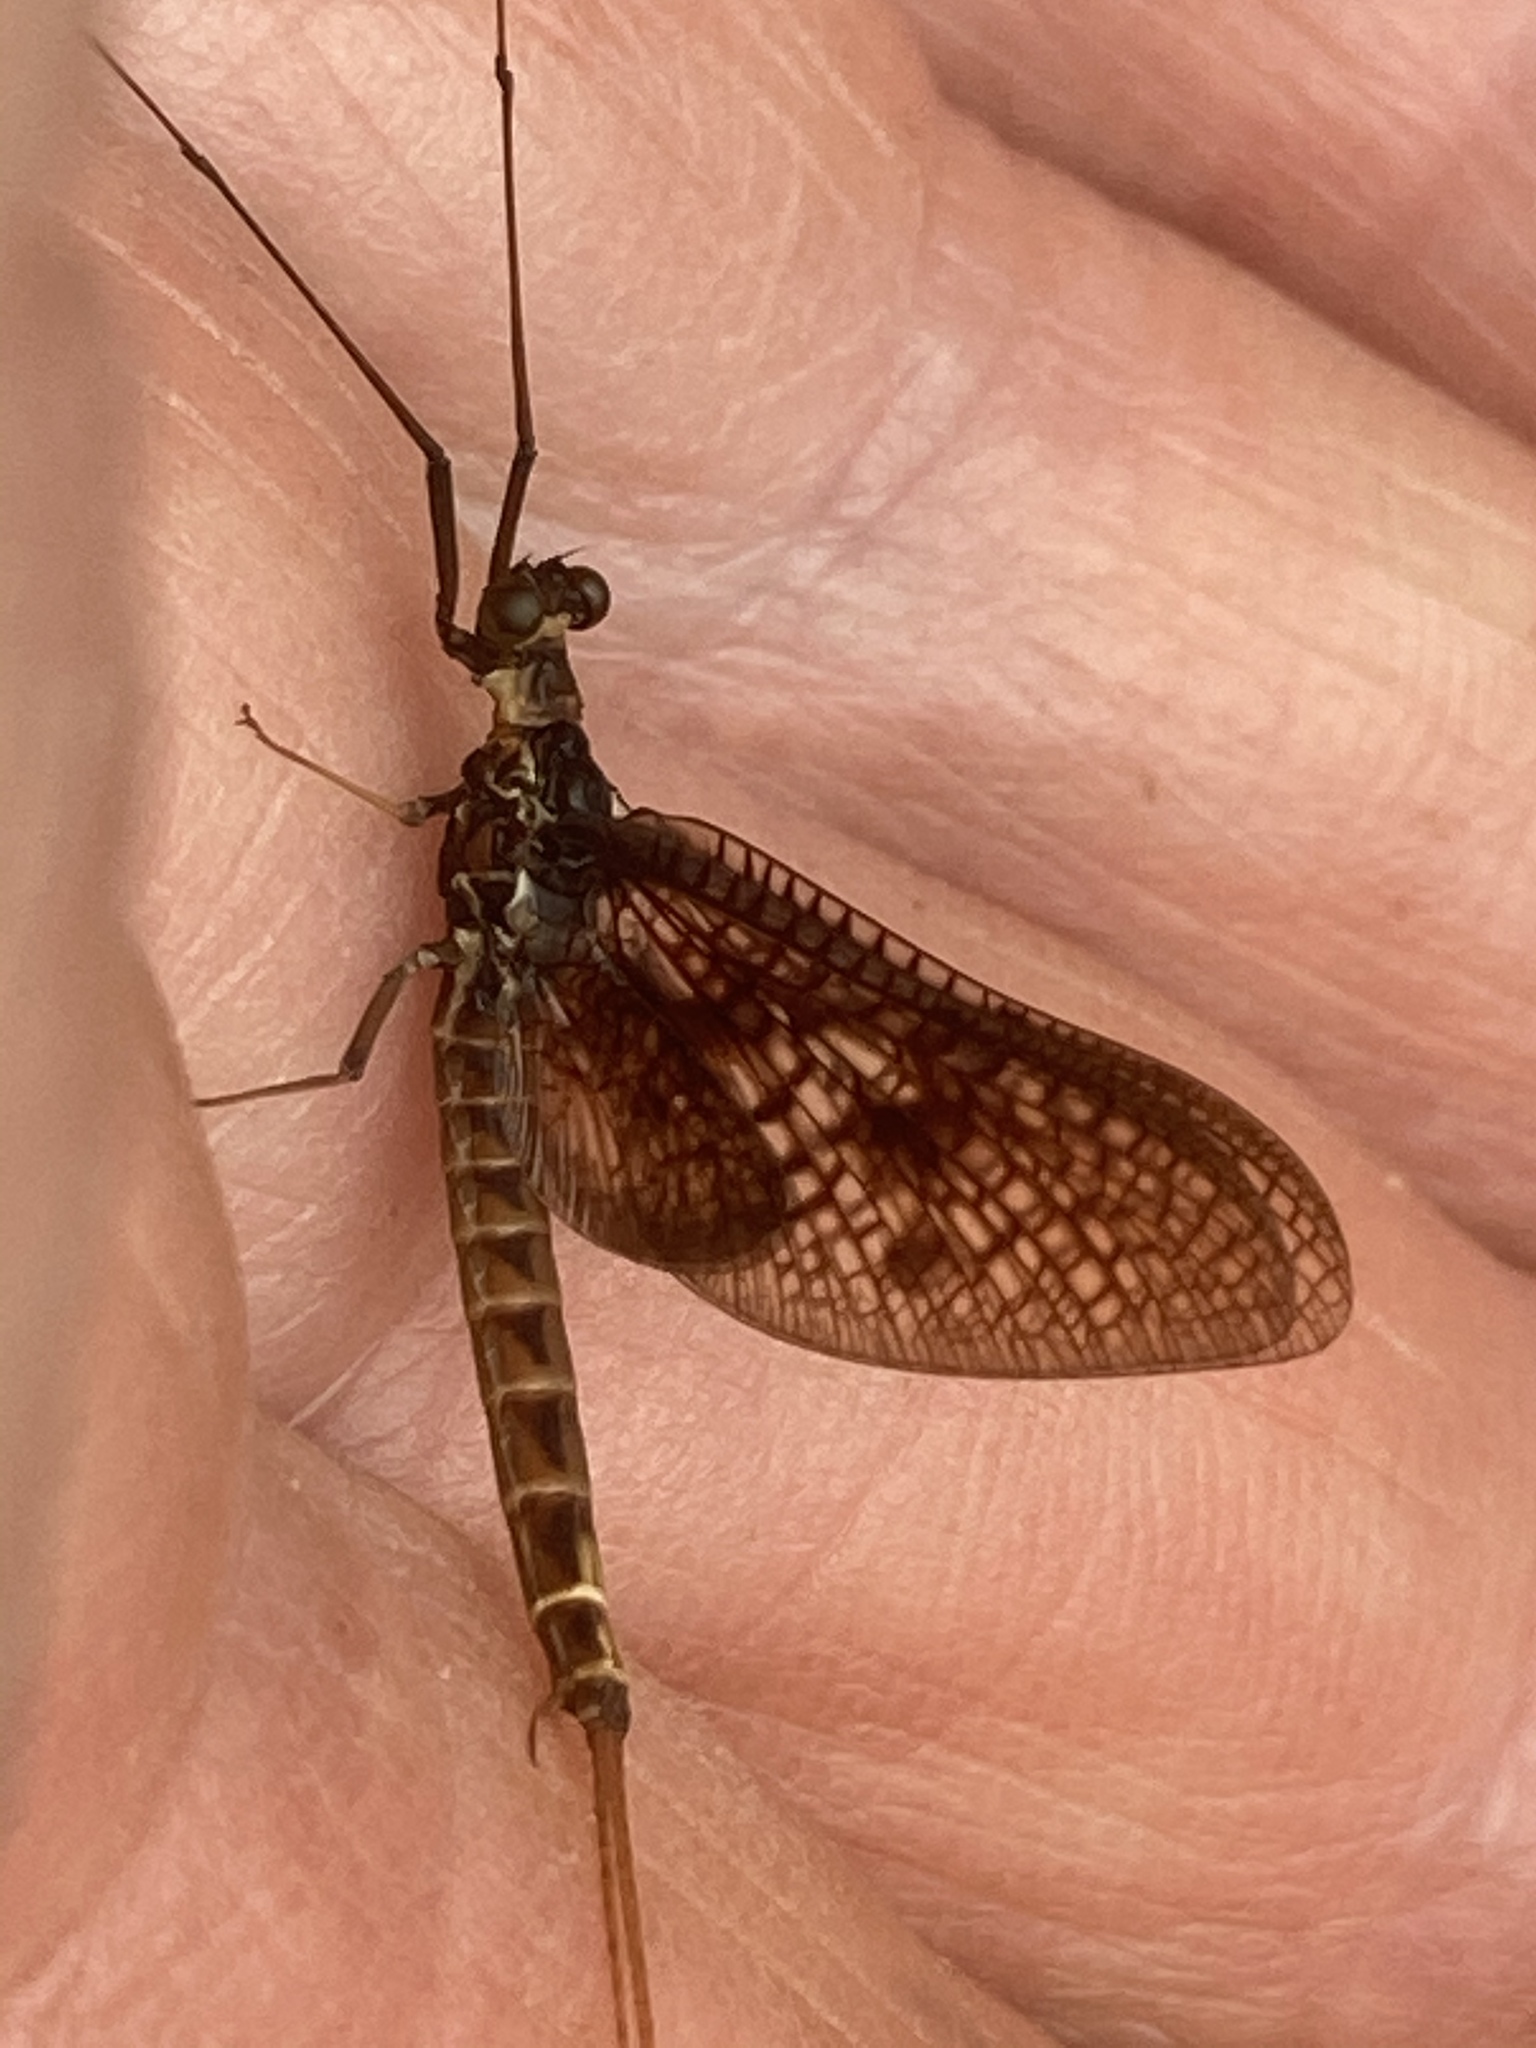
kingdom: Animalia
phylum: Arthropoda
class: Insecta
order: Ephemeroptera
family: Ephemeridae
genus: Ephemera
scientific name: Ephemera vulgata
